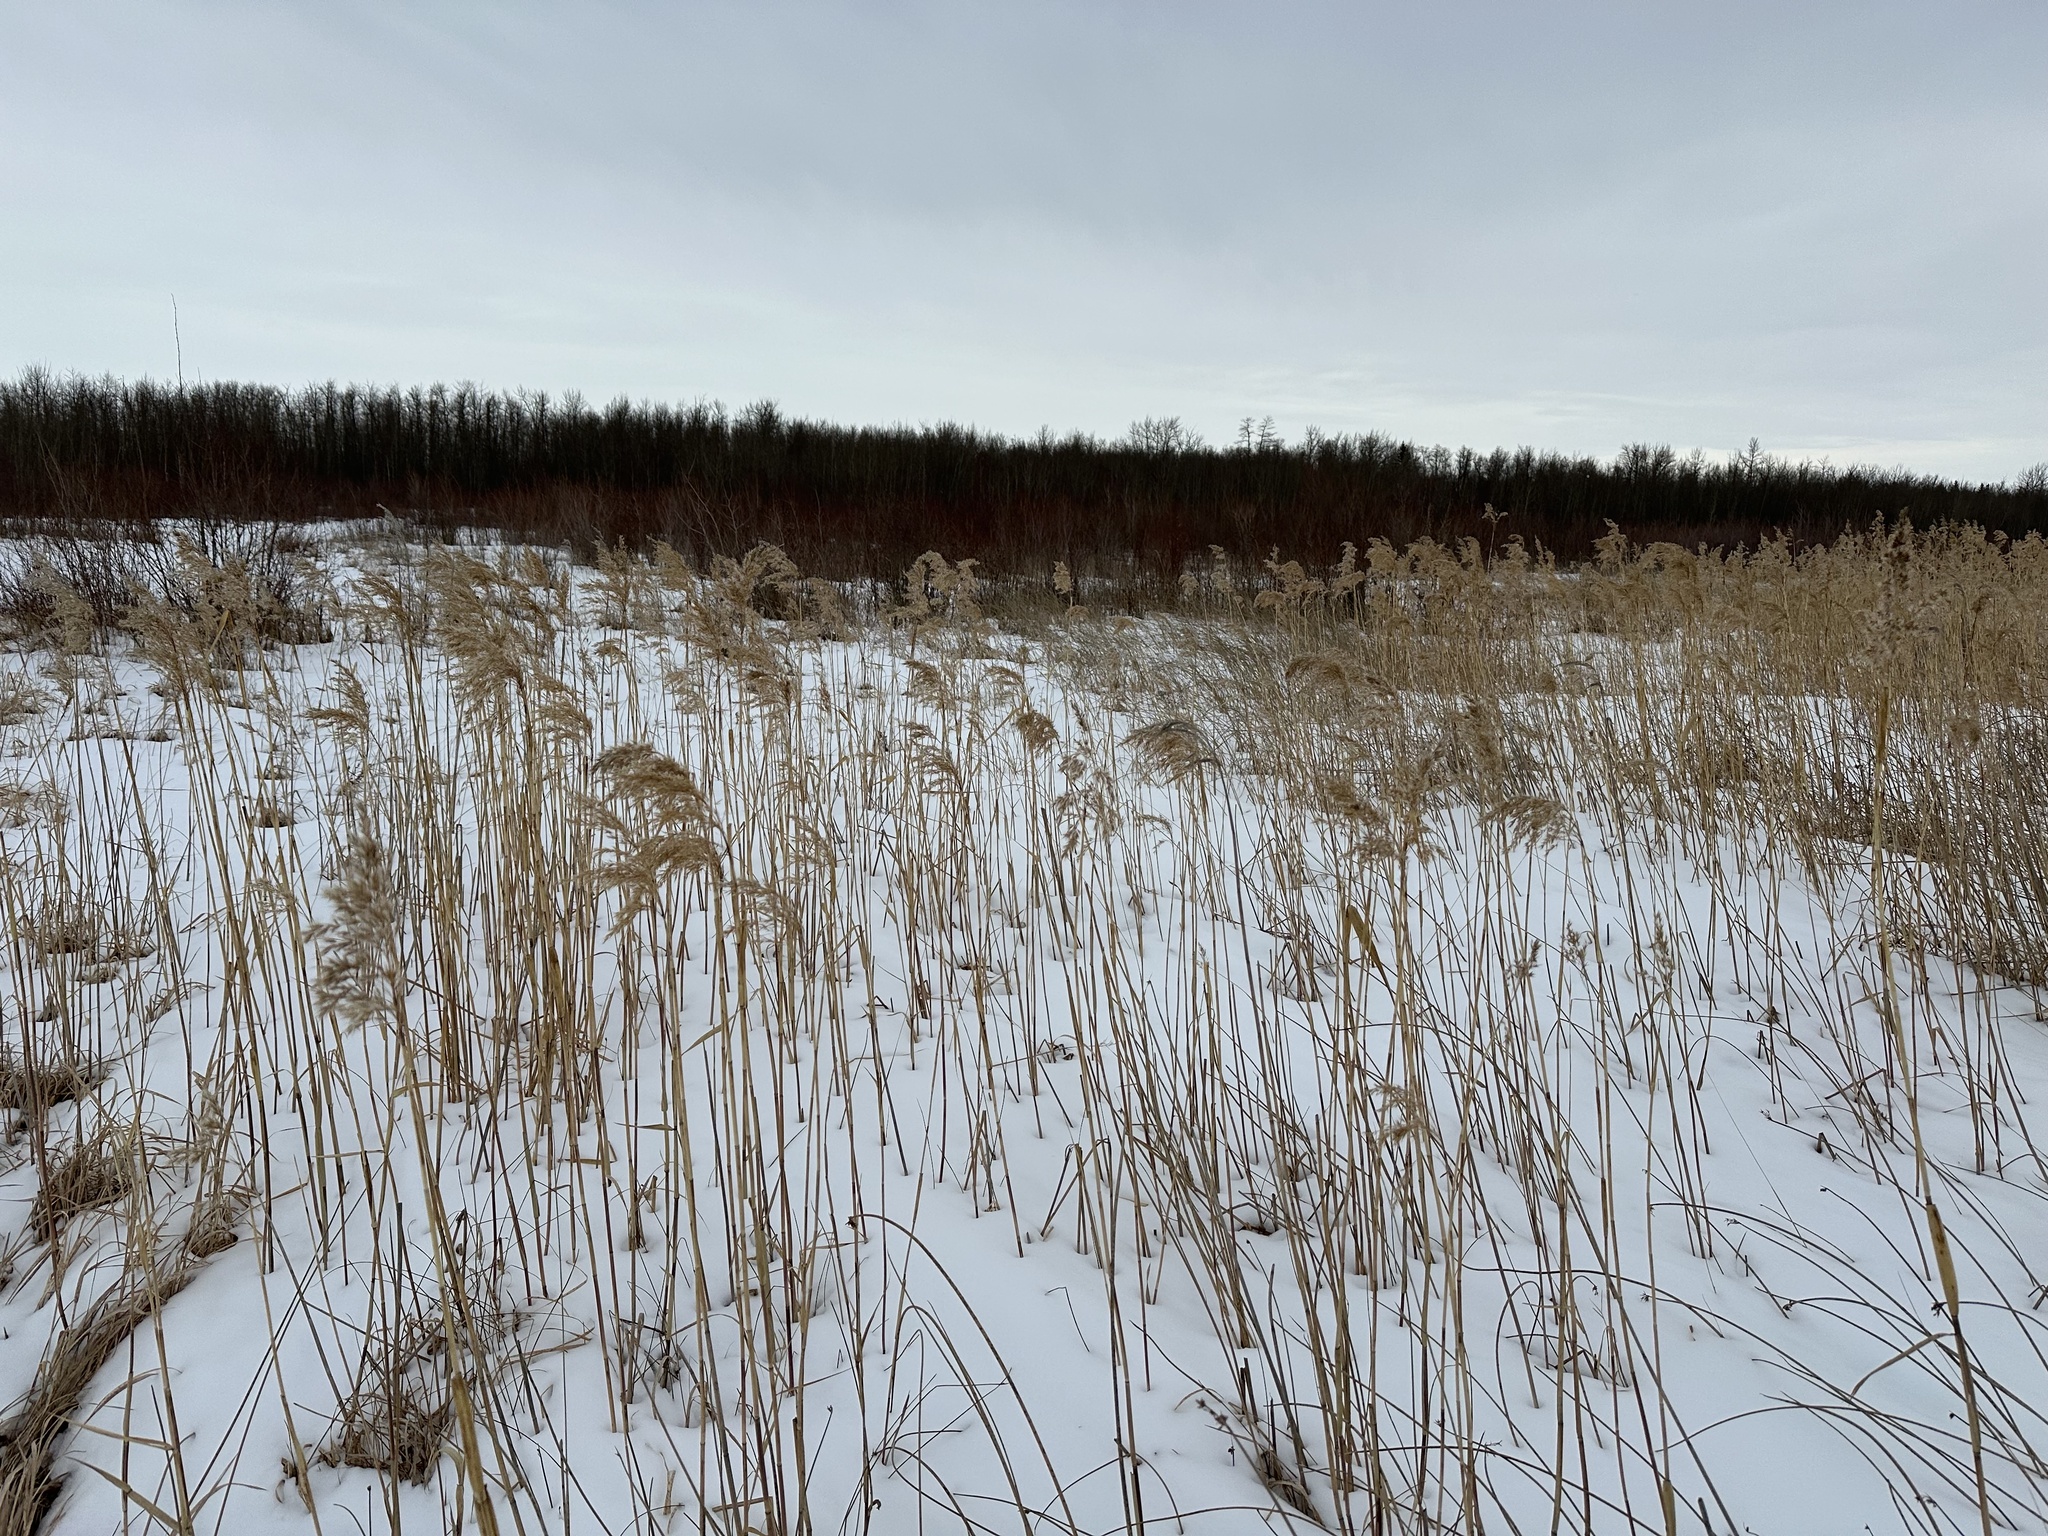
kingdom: Plantae
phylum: Tracheophyta
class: Liliopsida
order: Poales
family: Poaceae
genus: Phragmites
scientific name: Phragmites australis
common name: Common reed
